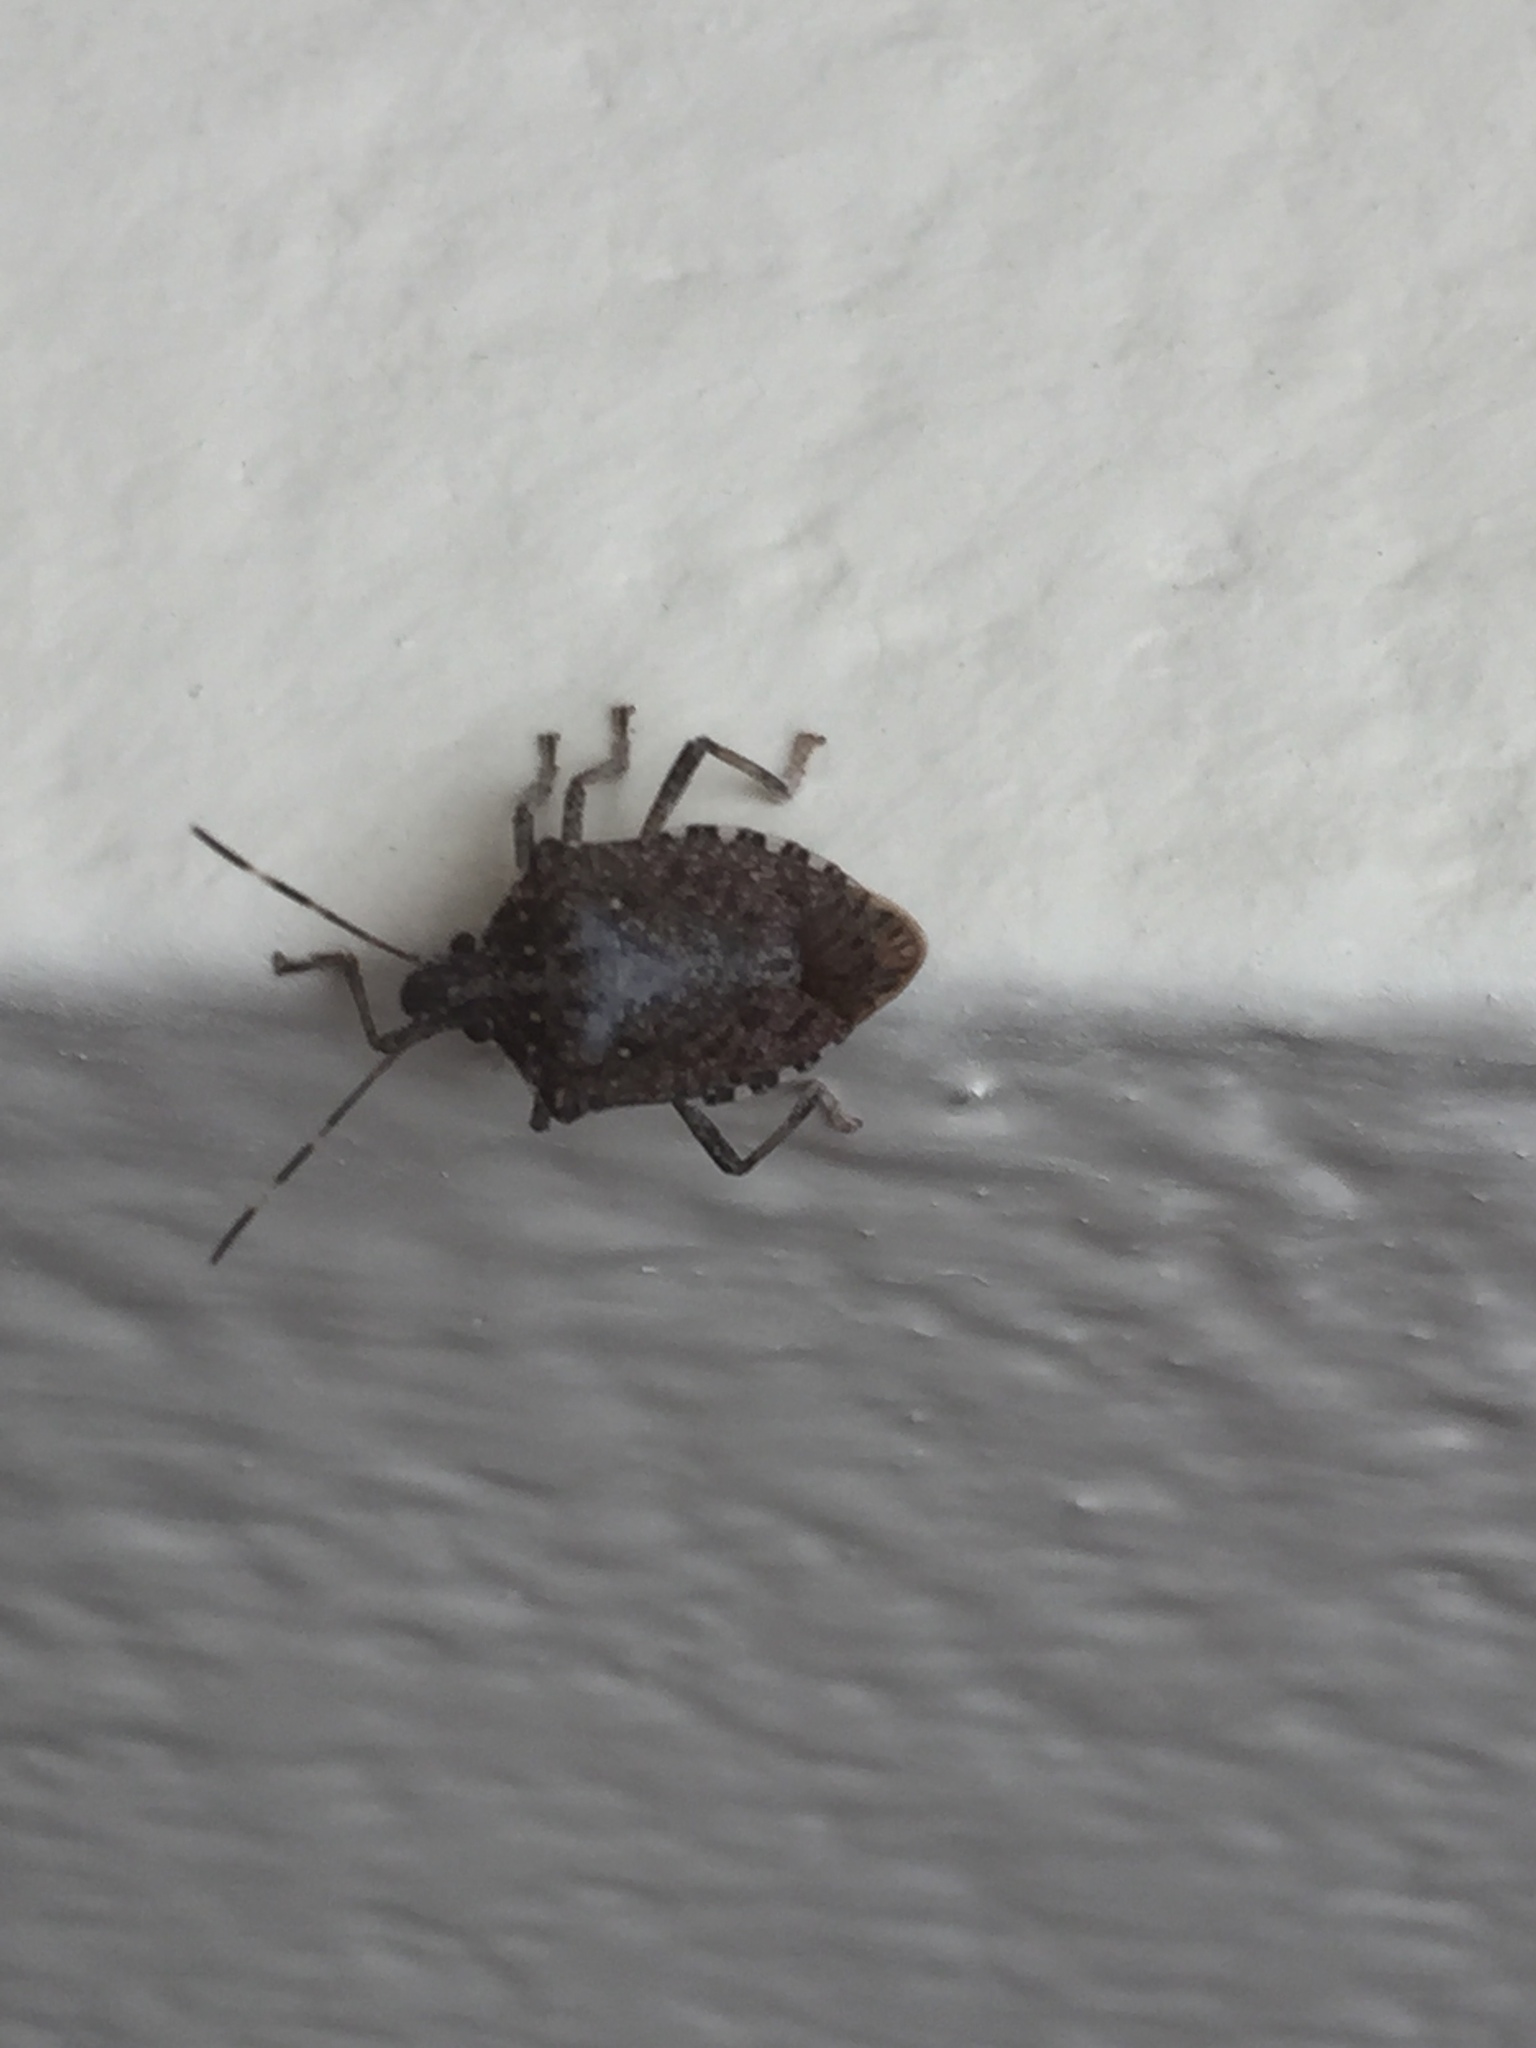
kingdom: Animalia
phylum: Arthropoda
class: Insecta
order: Hemiptera
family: Pentatomidae
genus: Halyomorpha
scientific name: Halyomorpha halys
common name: Brown marmorated stink bug
